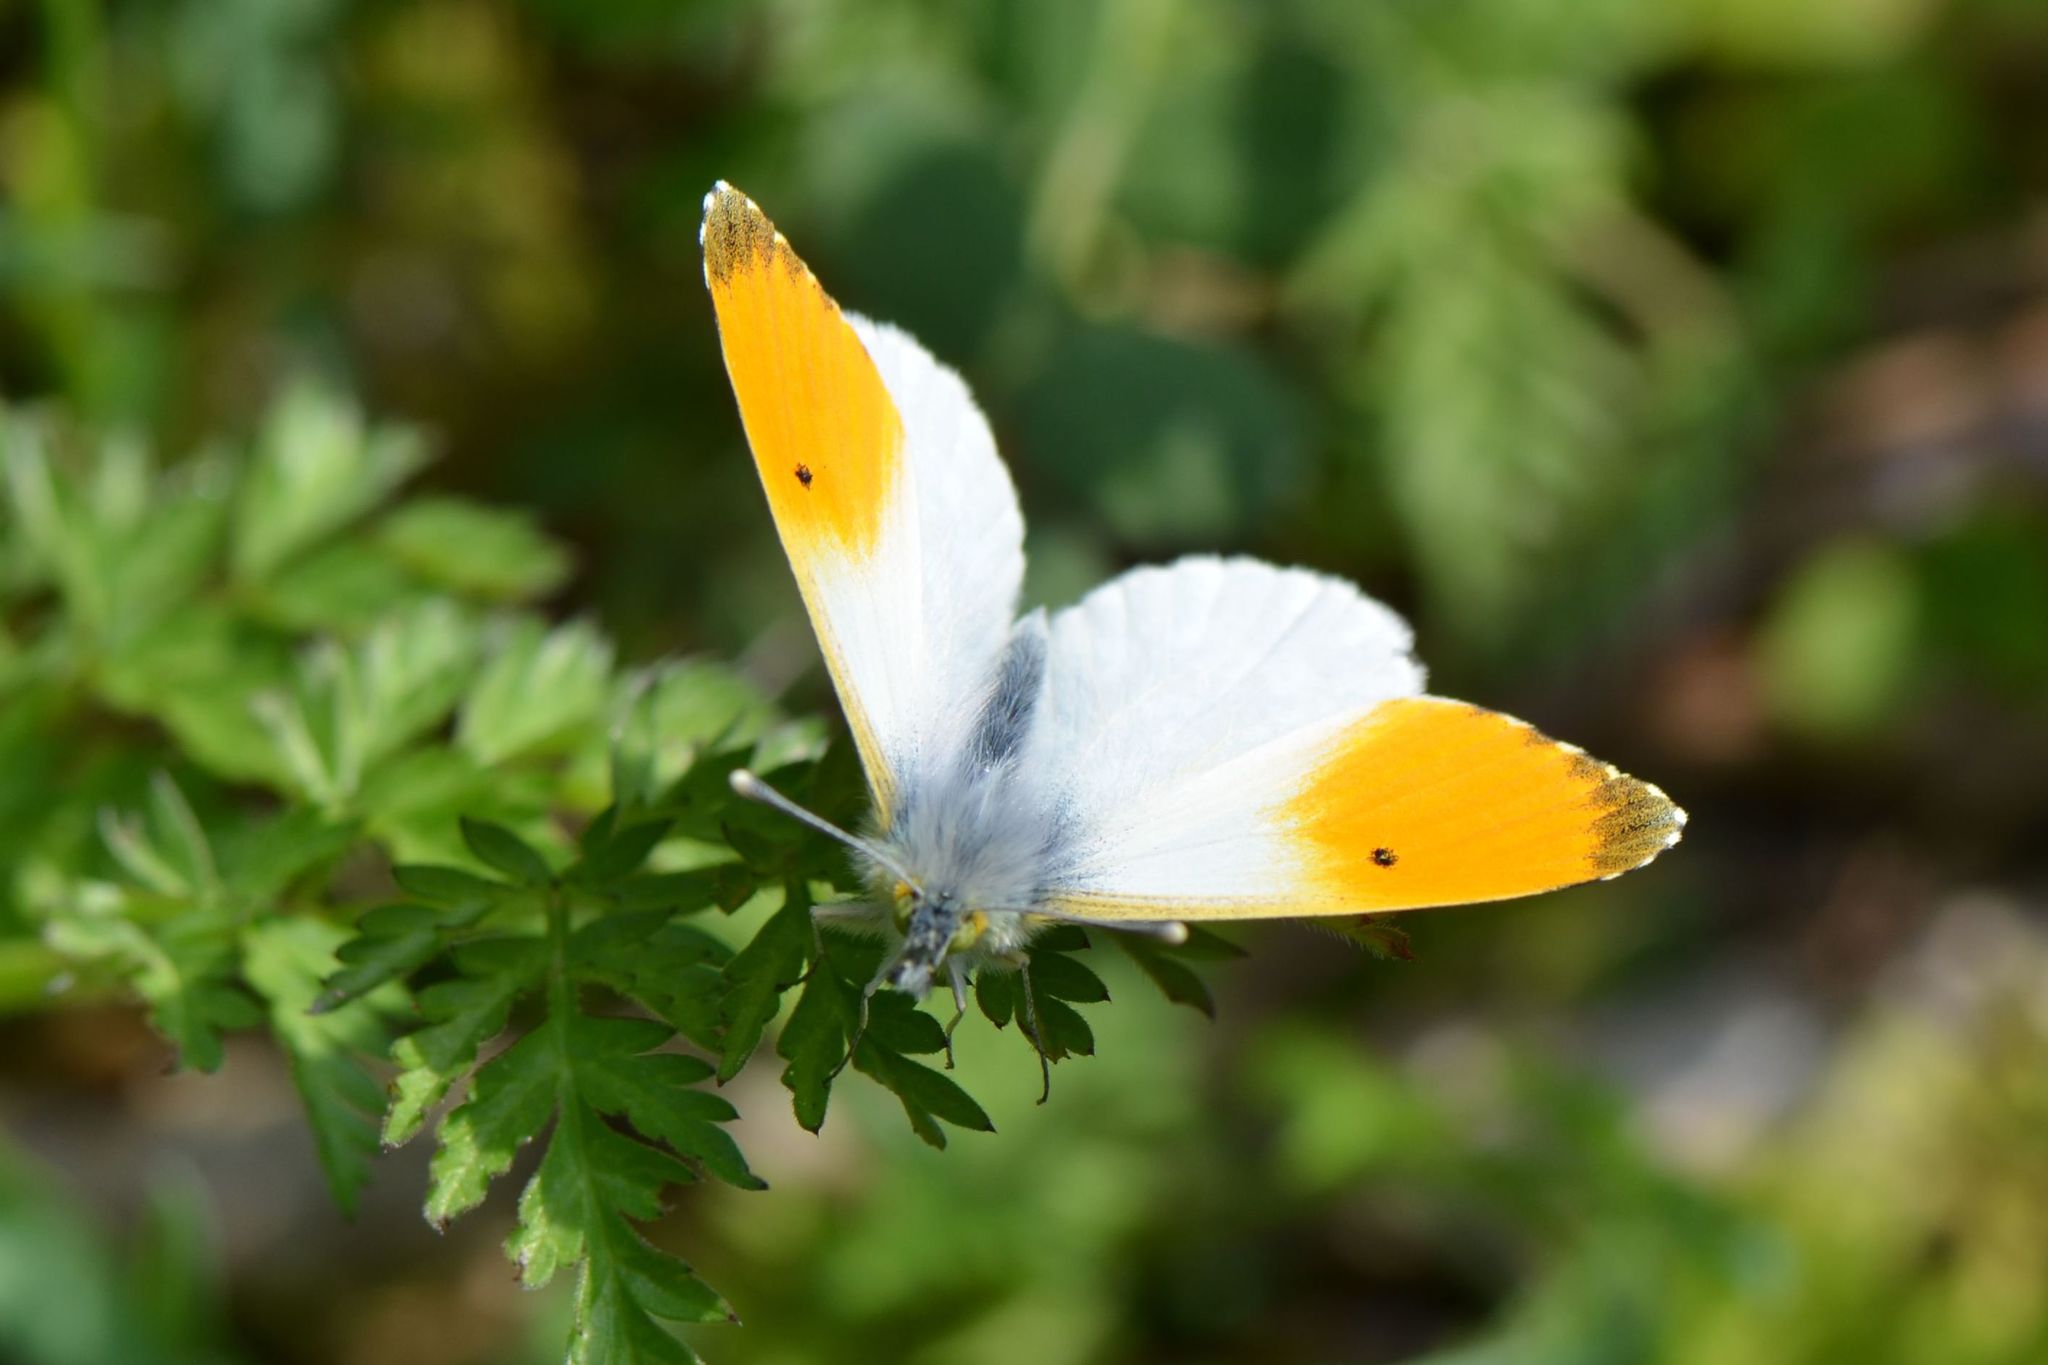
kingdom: Animalia
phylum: Arthropoda
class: Insecta
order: Lepidoptera
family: Pieridae
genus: Anthocharis
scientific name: Anthocharis cardamines
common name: Orange-tip
